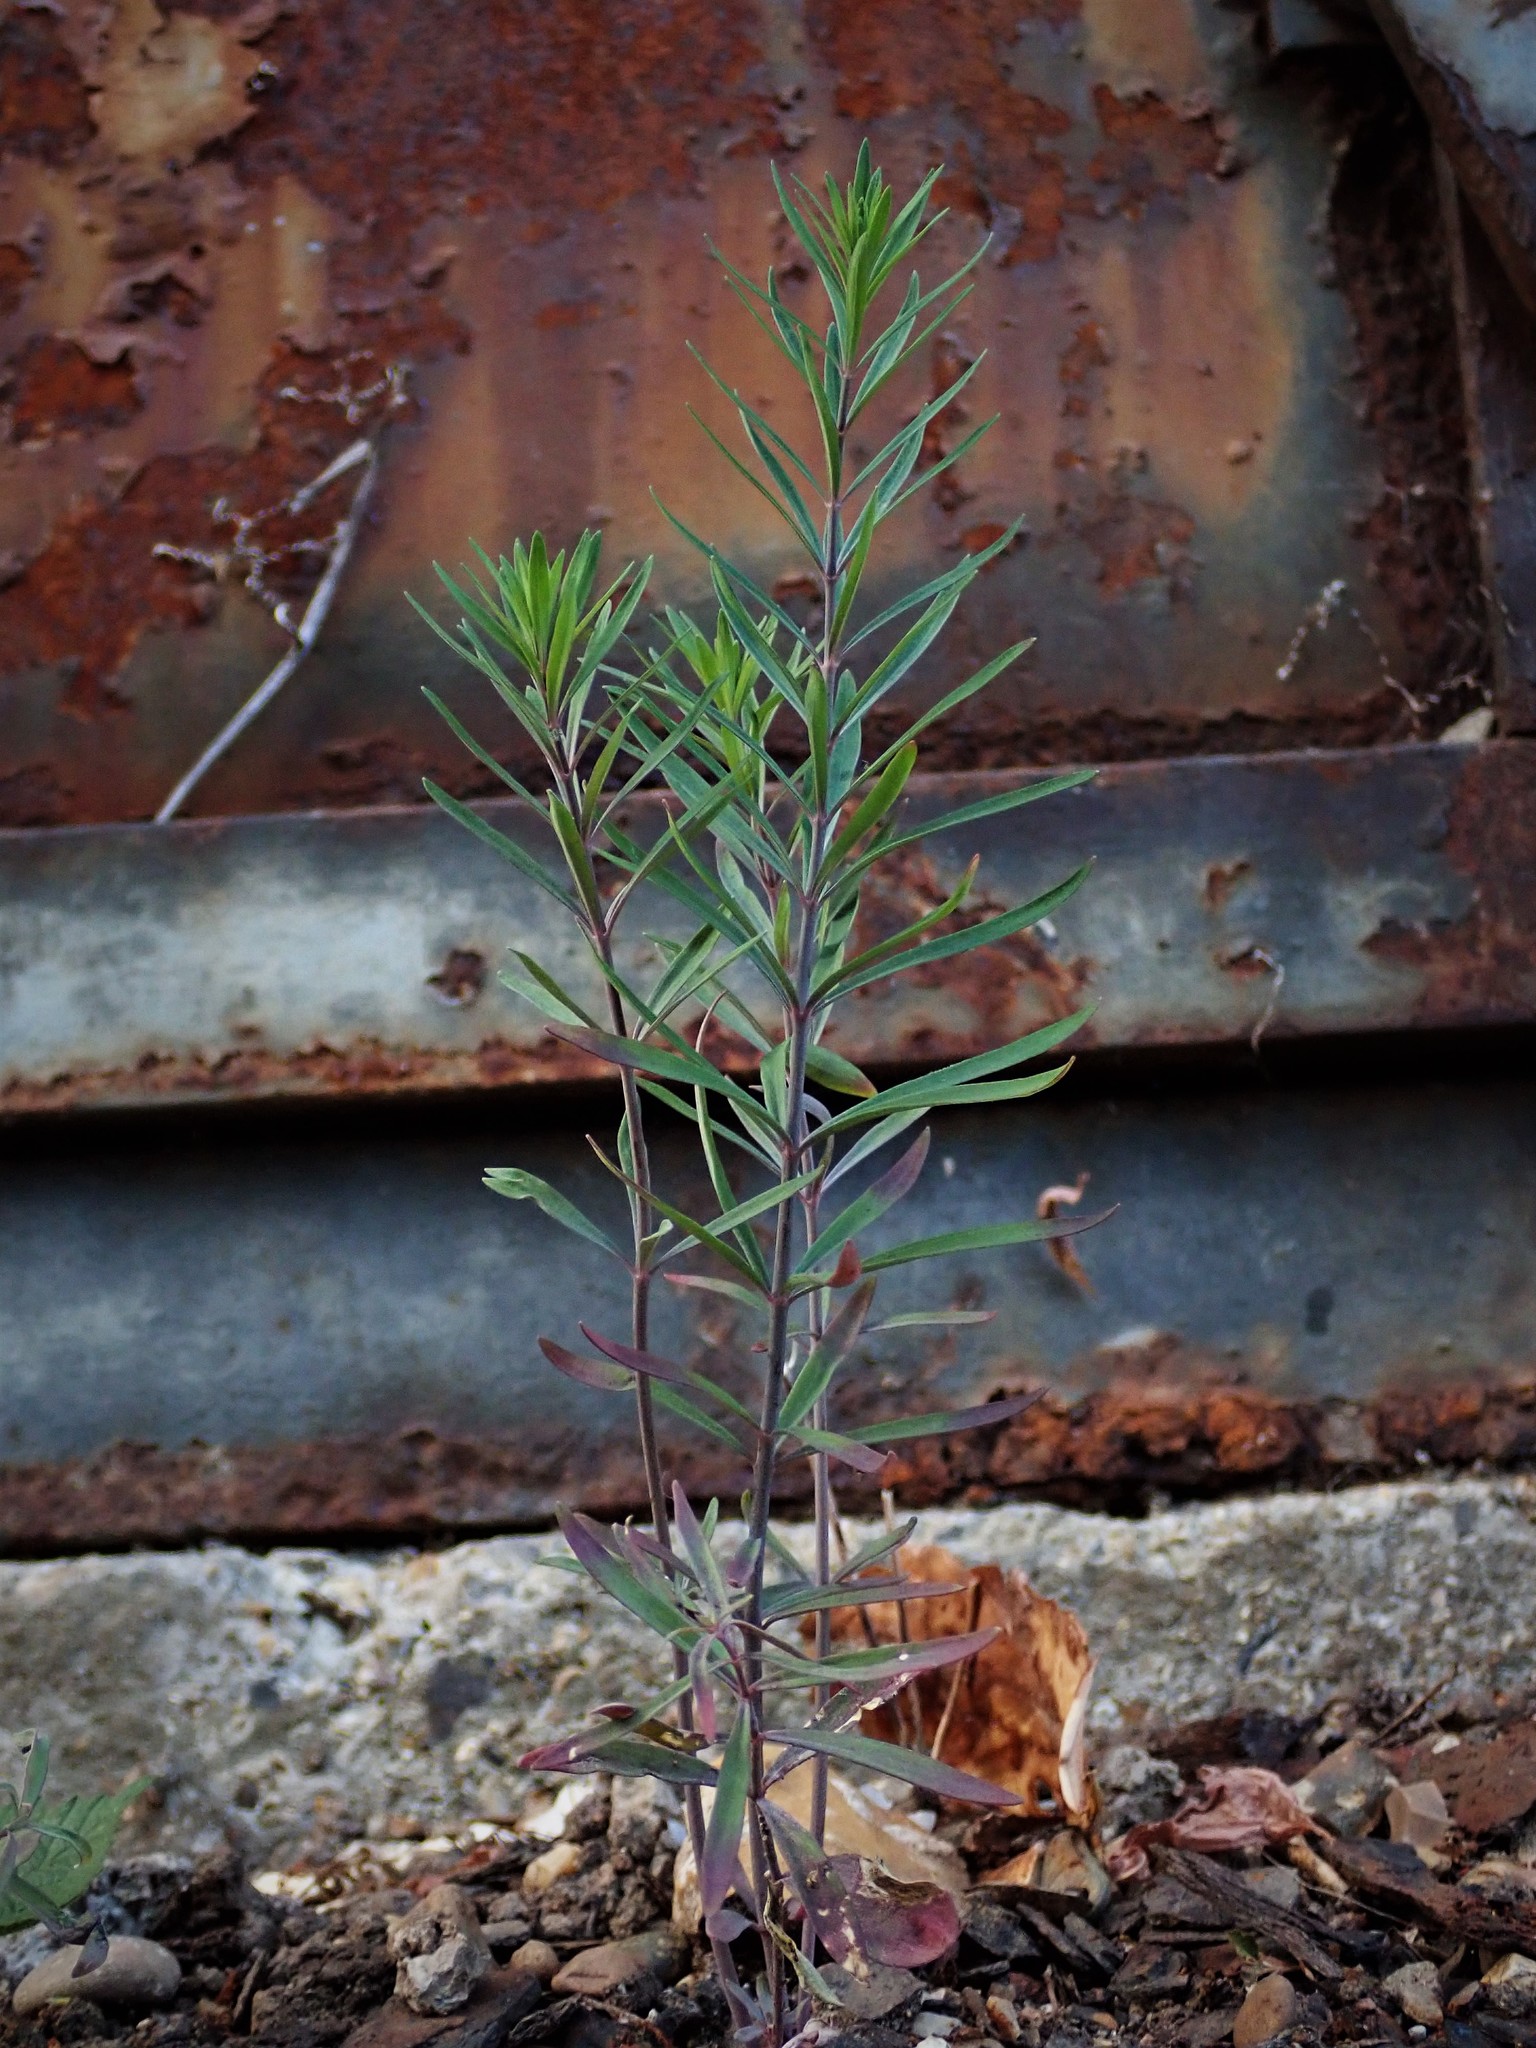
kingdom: Plantae
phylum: Tracheophyta
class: Magnoliopsida
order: Lamiales
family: Plantaginaceae
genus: Linaria
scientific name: Linaria purpurea
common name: Purple toadflax
